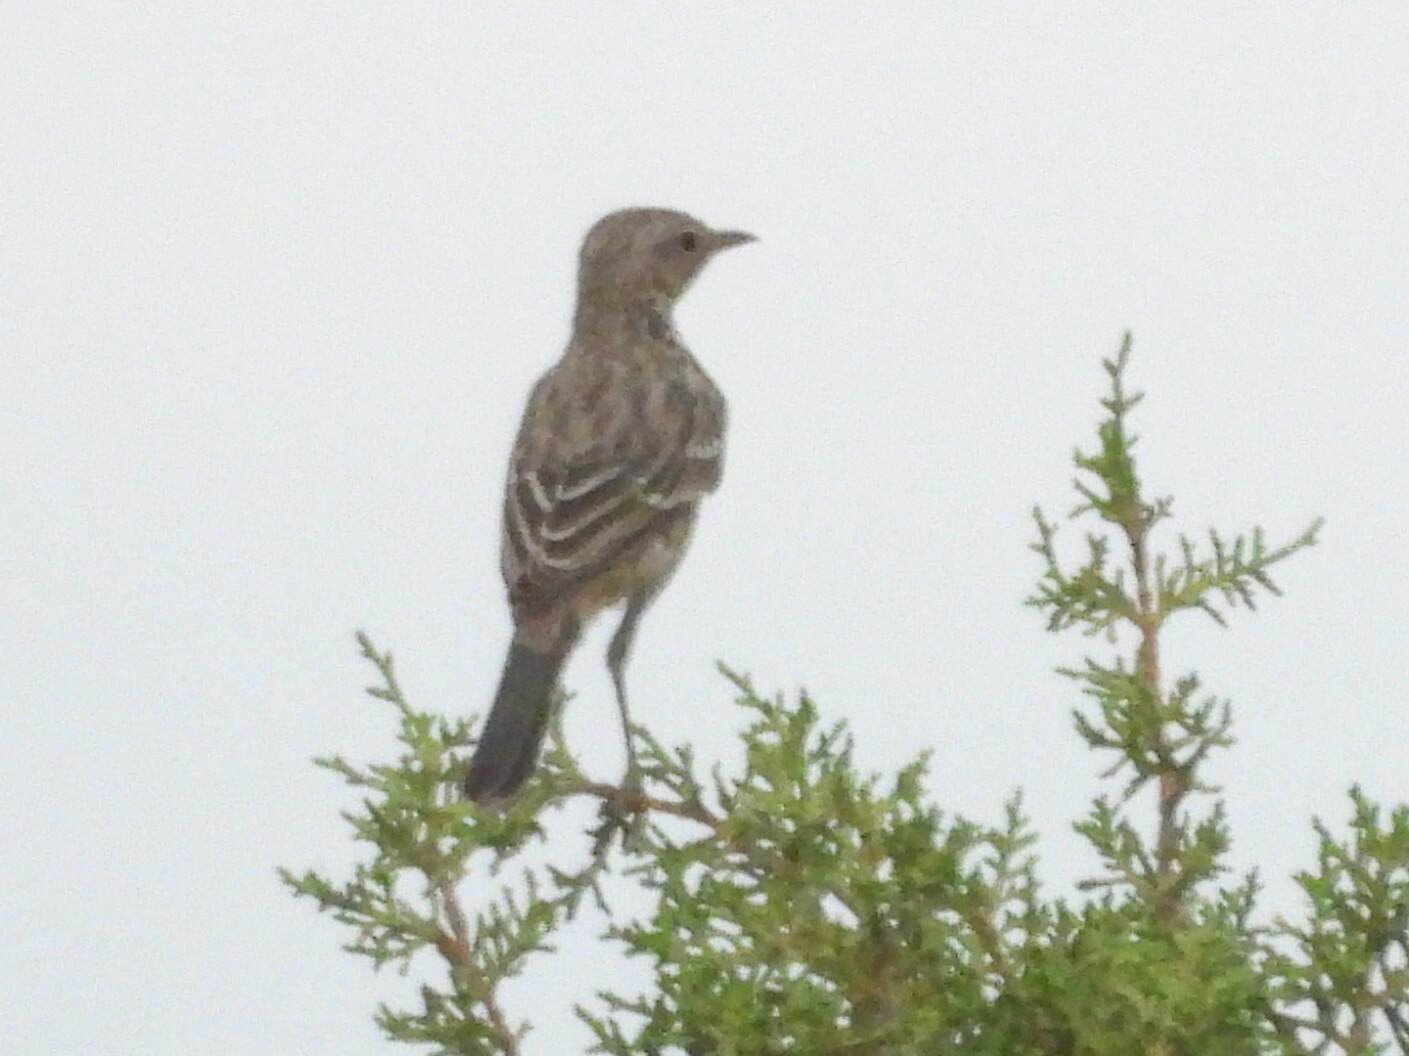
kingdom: Animalia
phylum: Chordata
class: Aves
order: Passeriformes
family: Mimidae
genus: Oreoscoptes
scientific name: Oreoscoptes montanus
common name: Sage thrasher
